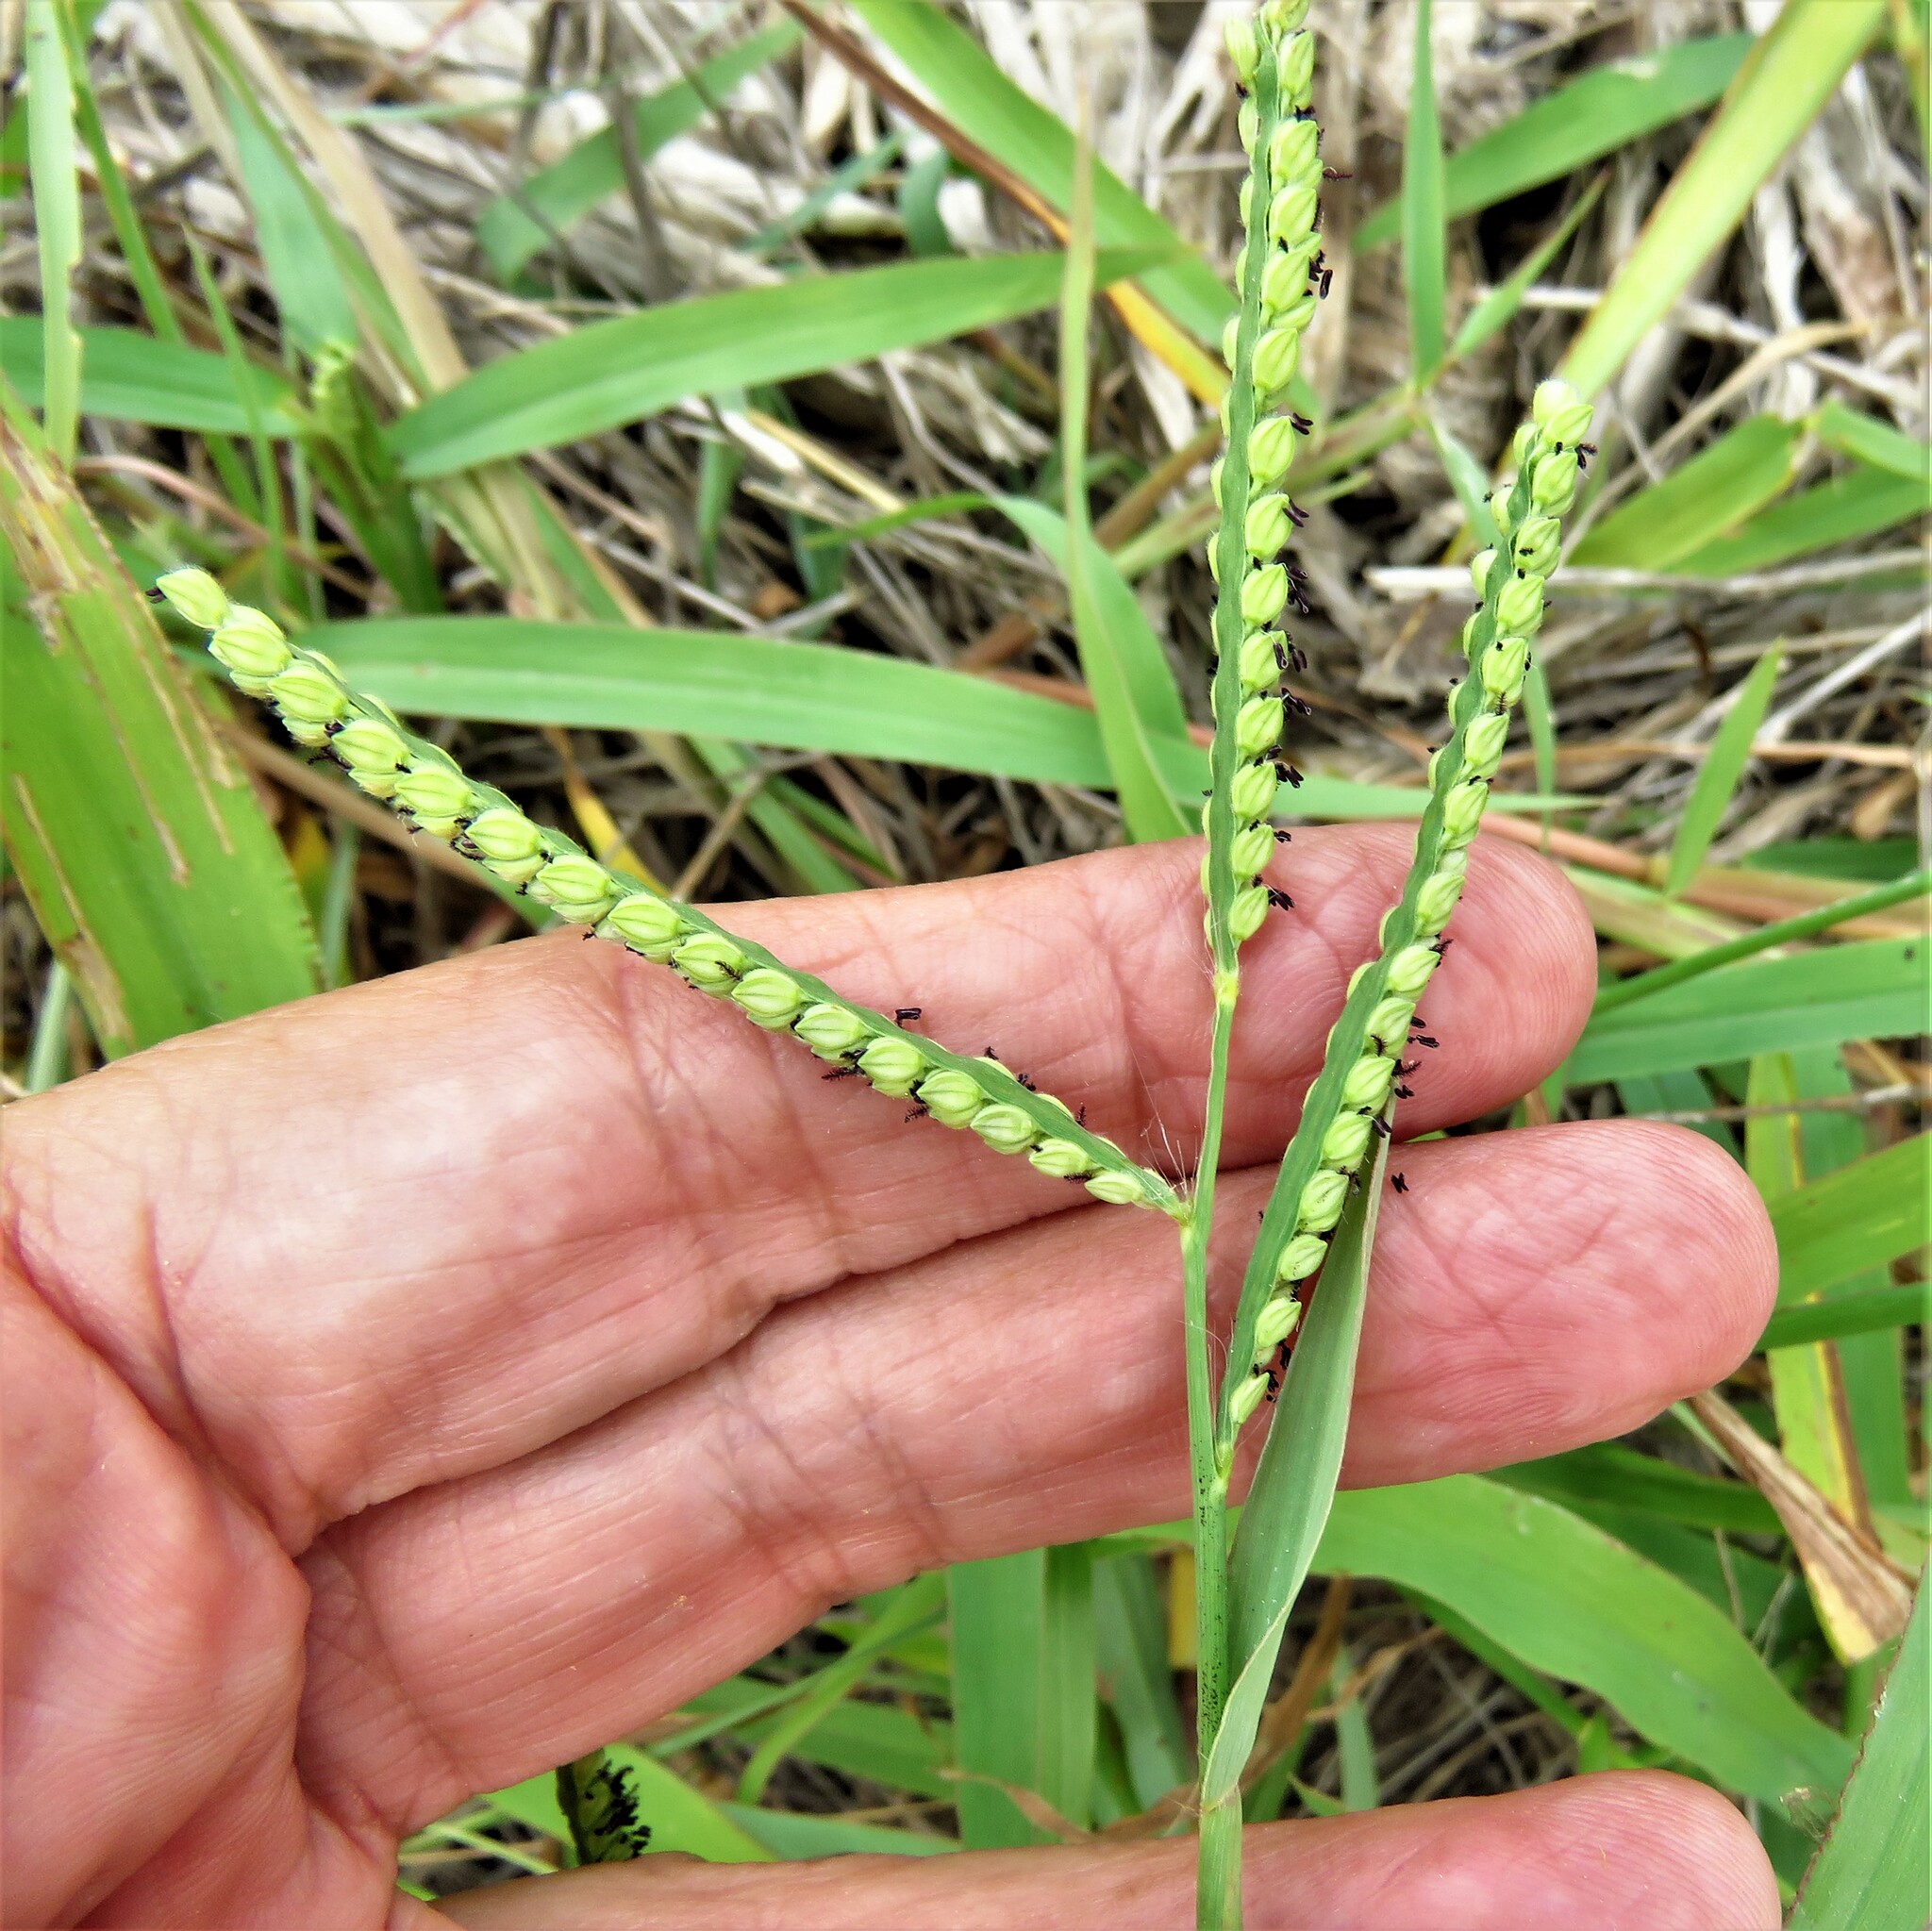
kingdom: Plantae
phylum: Tracheophyta
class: Liliopsida
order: Poales
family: Poaceae
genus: Paspalum
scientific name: Paspalum pubiflorum
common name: Hairy-seed paspalum
